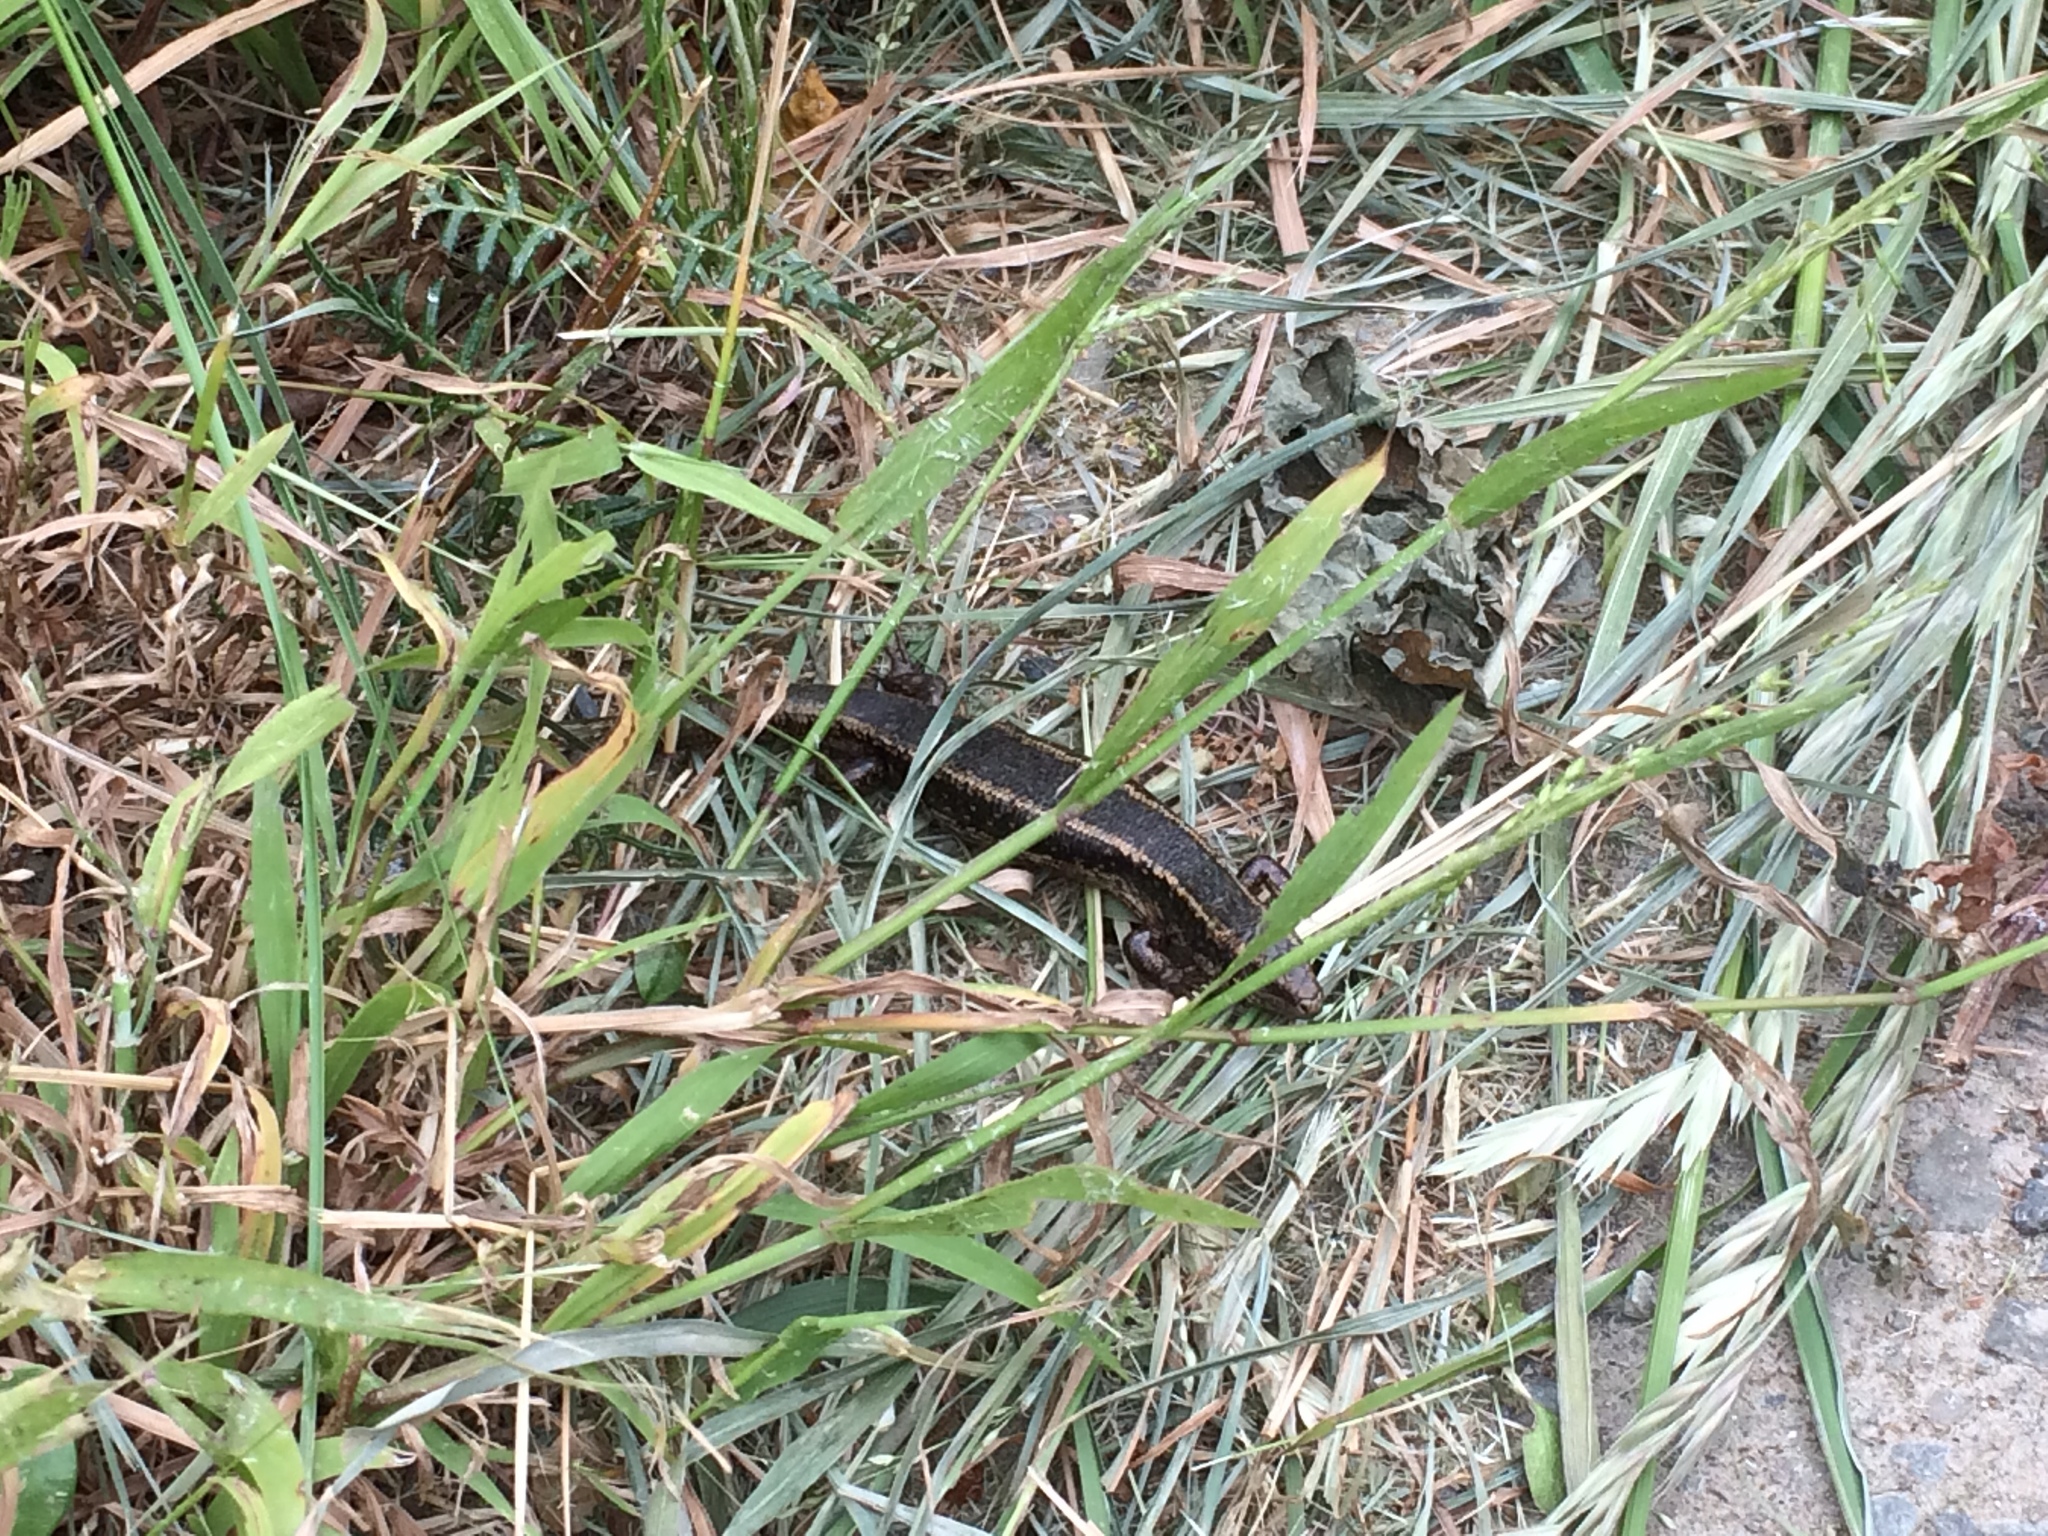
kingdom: Animalia
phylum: Chordata
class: Squamata
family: Scincidae
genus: Oligosoma
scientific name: Oligosoma kokowai
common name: Northern spotted skink
